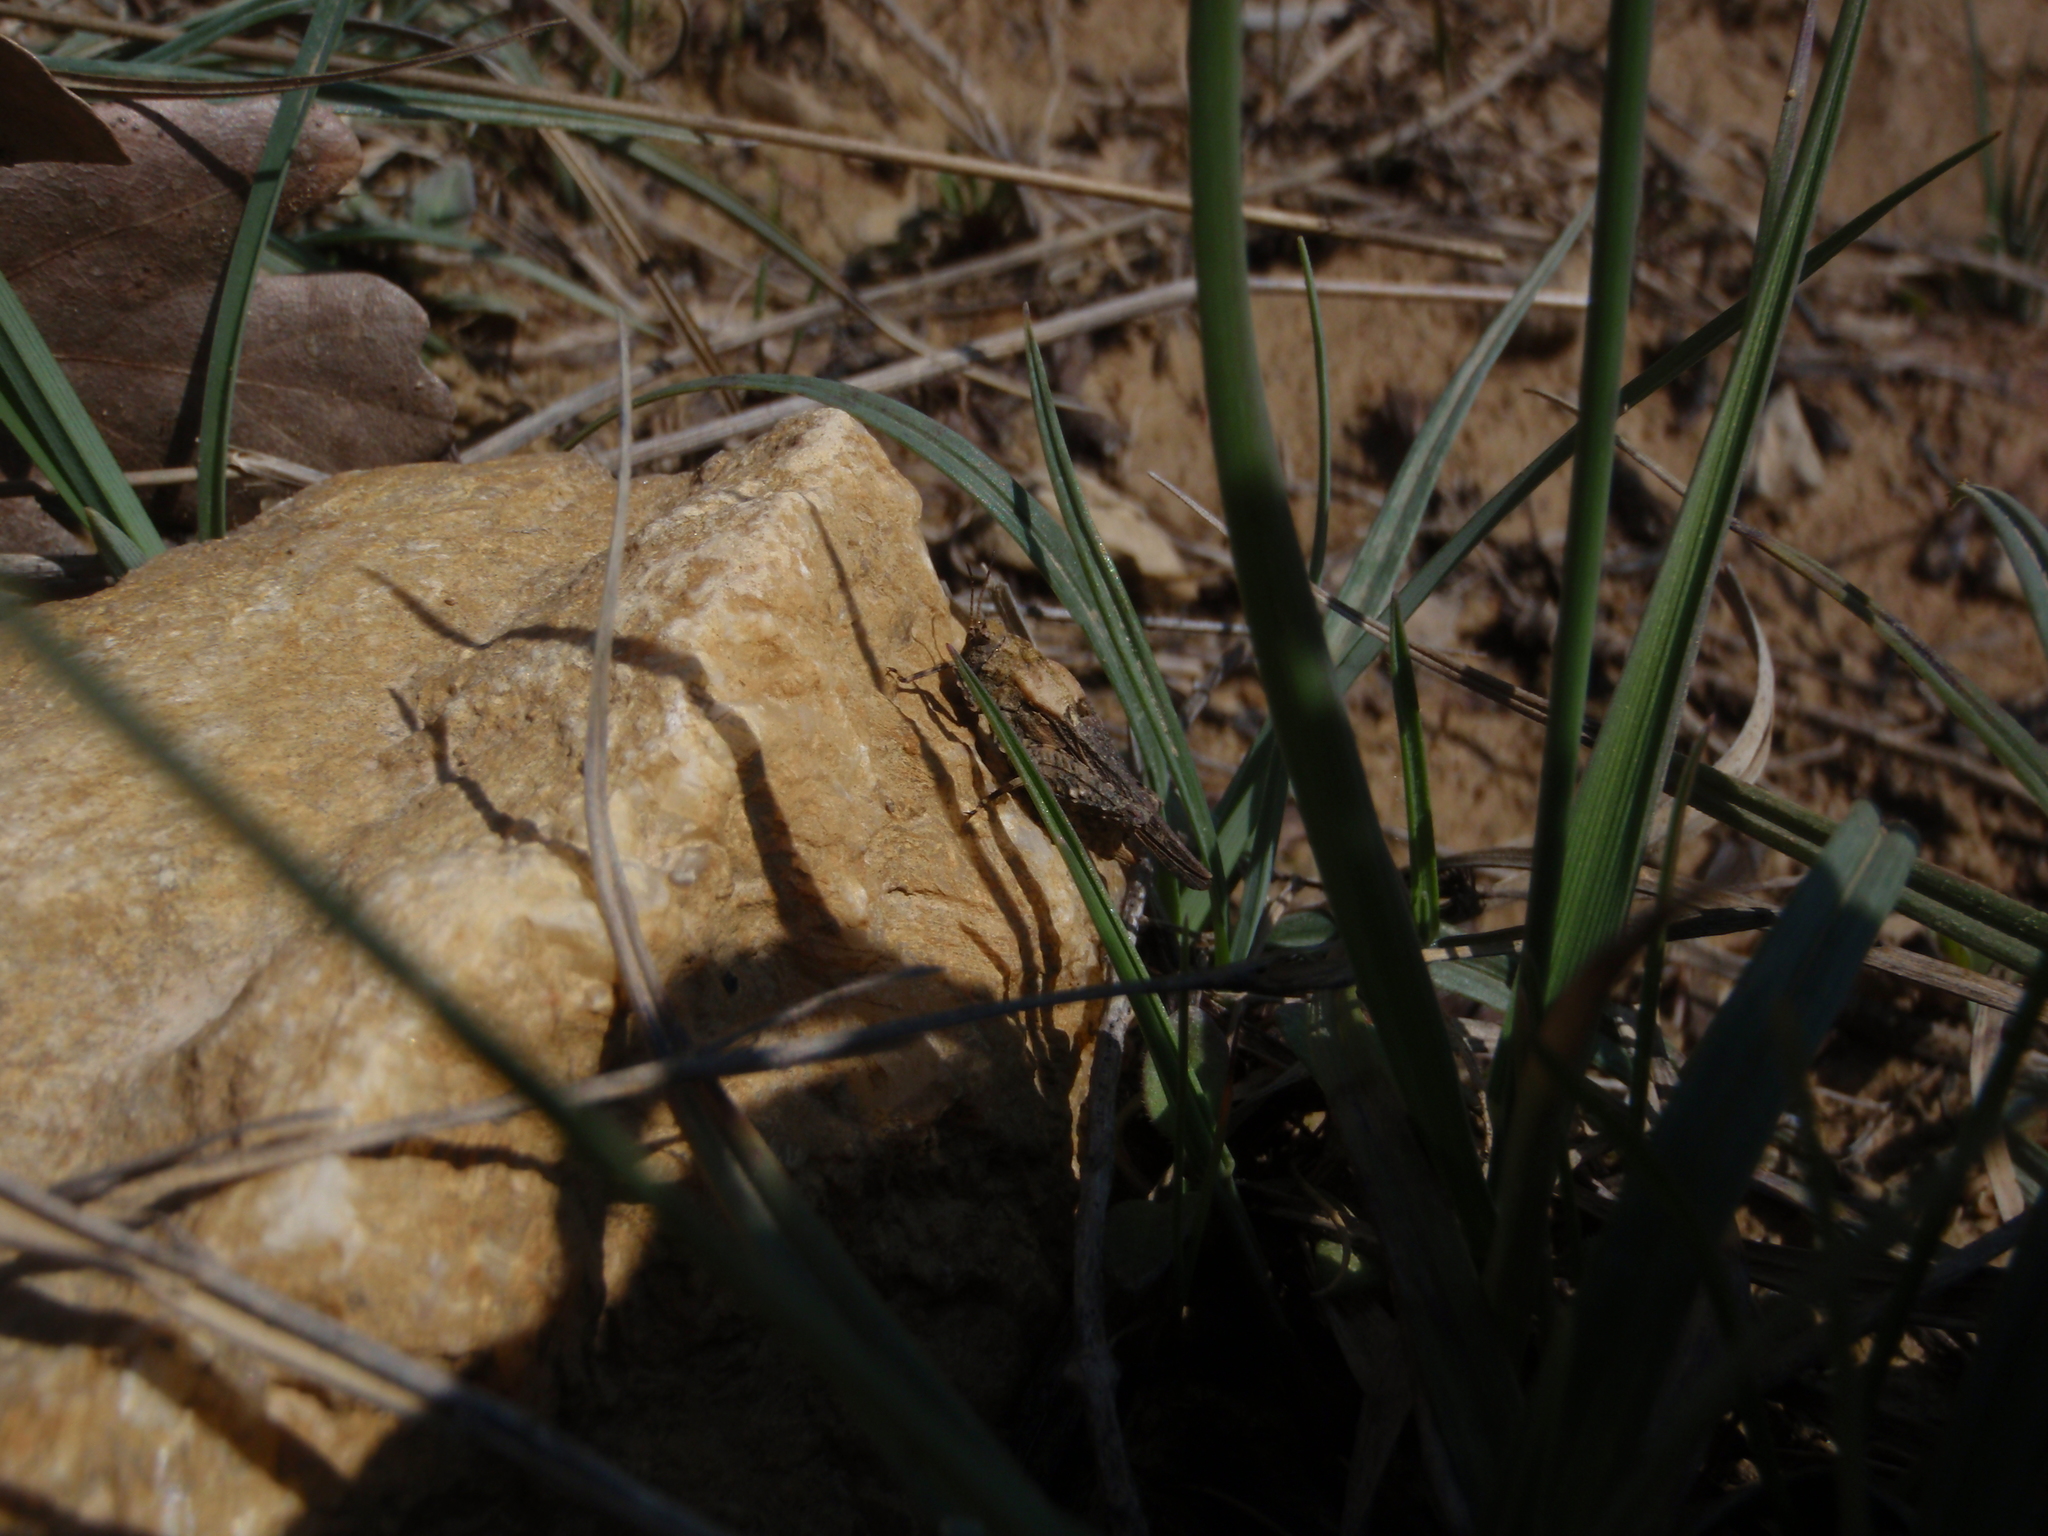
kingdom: Animalia
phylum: Arthropoda
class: Insecta
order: Orthoptera
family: Tetrigidae
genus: Tetrix
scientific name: Tetrix depressa
